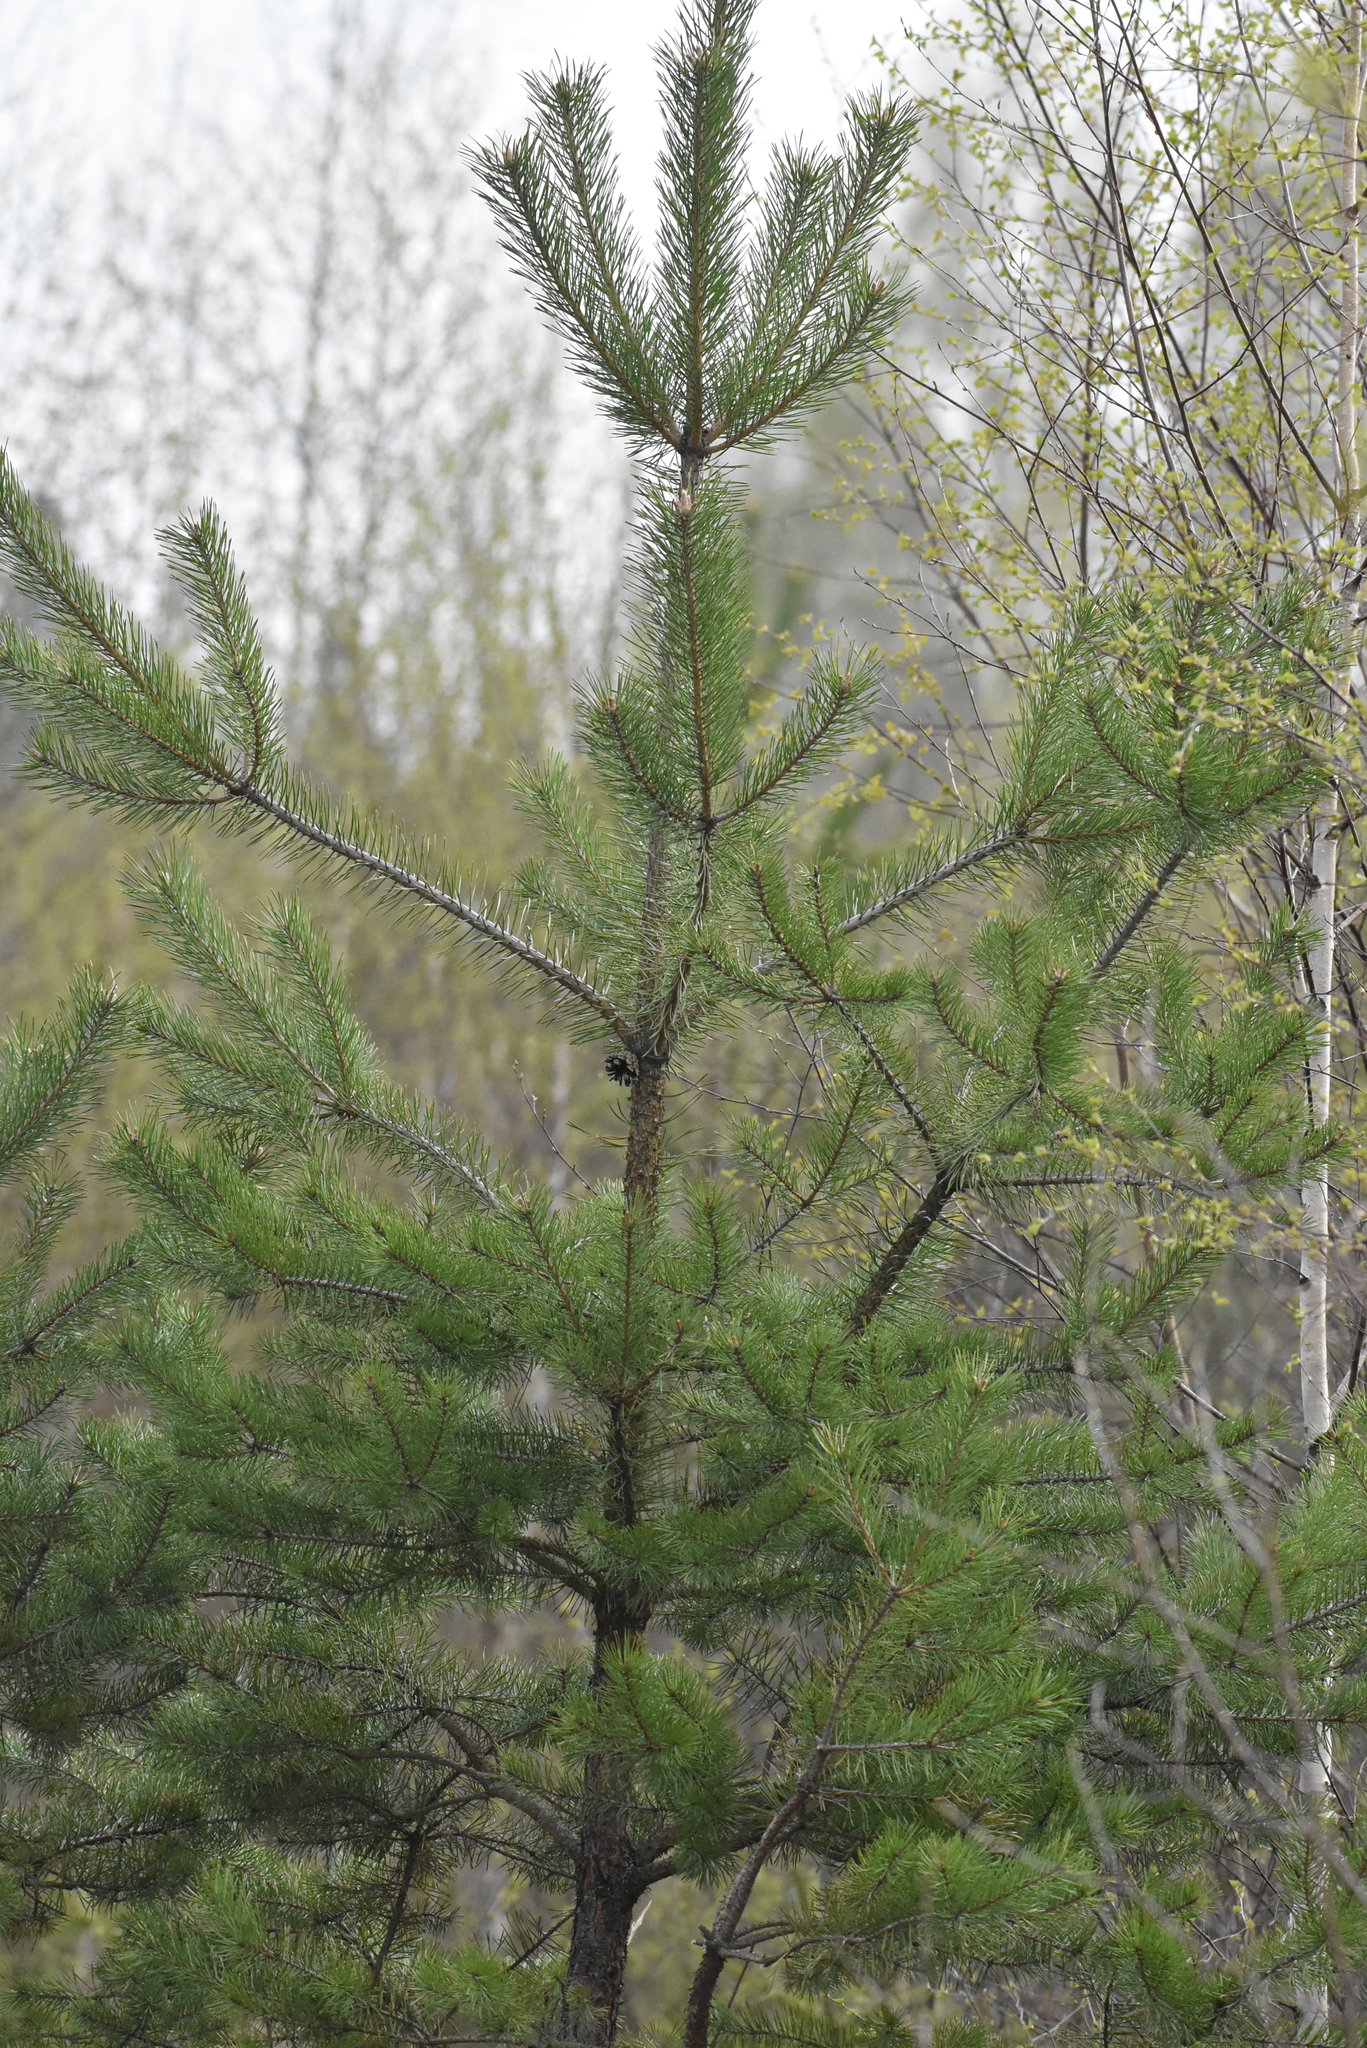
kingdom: Plantae
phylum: Tracheophyta
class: Pinopsida
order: Pinales
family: Pinaceae
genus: Pinus
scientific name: Pinus sylvestris
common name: Scots pine
